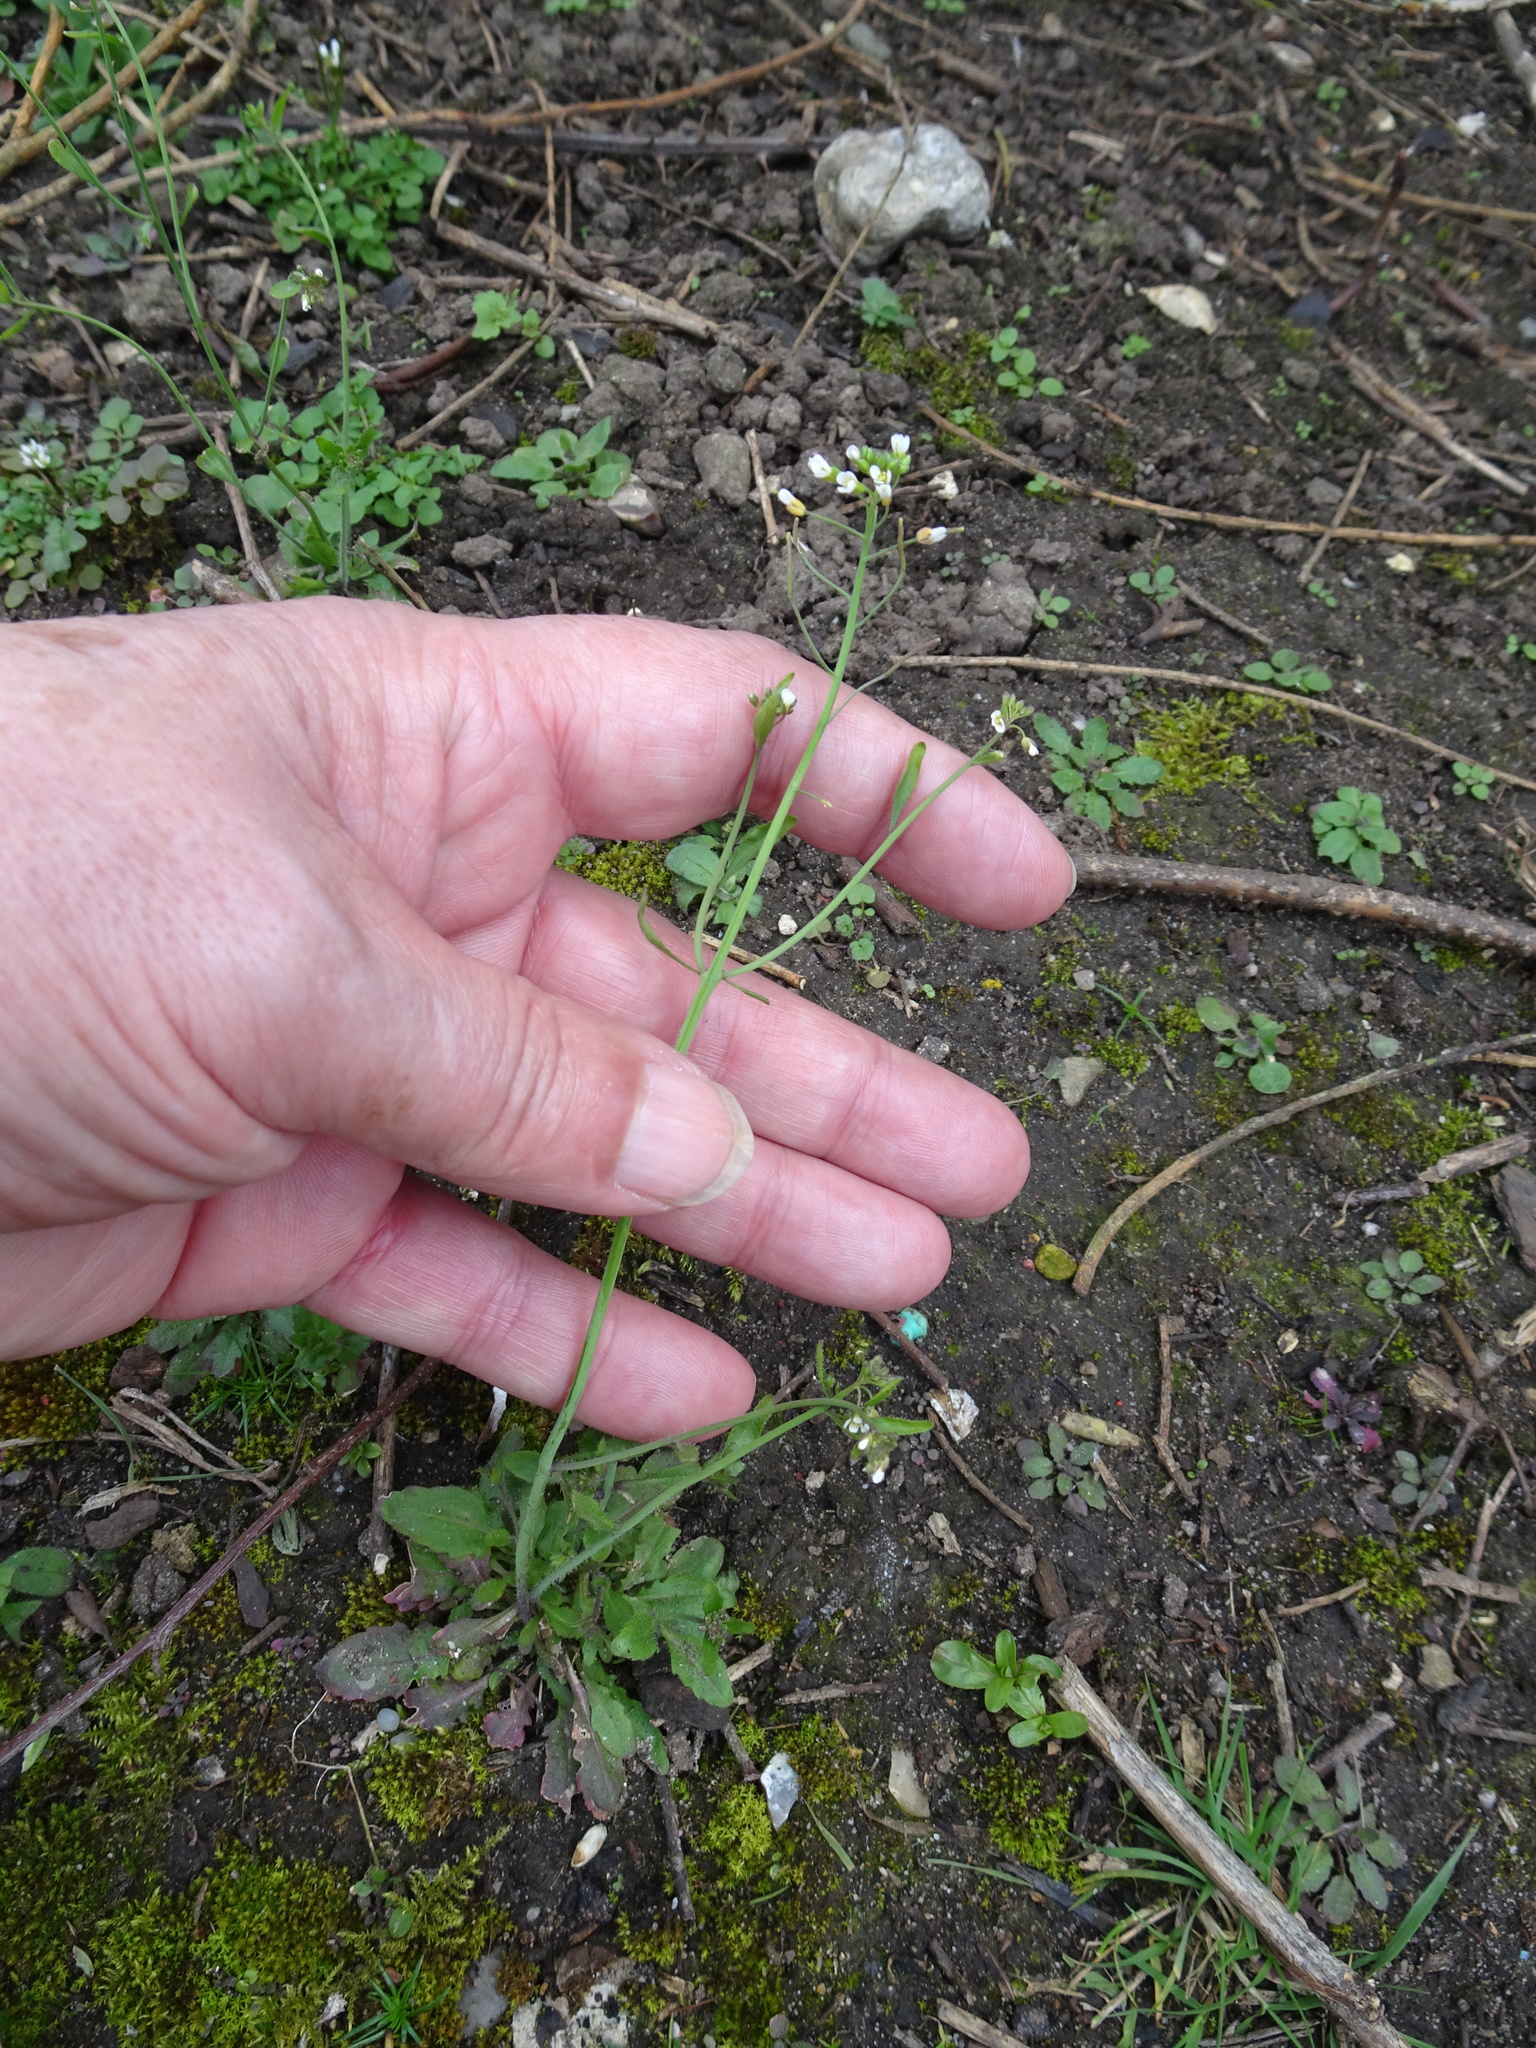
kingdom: Plantae
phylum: Tracheophyta
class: Magnoliopsida
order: Brassicales
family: Brassicaceae
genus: Arabidopsis
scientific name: Arabidopsis thaliana
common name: Thale cress
